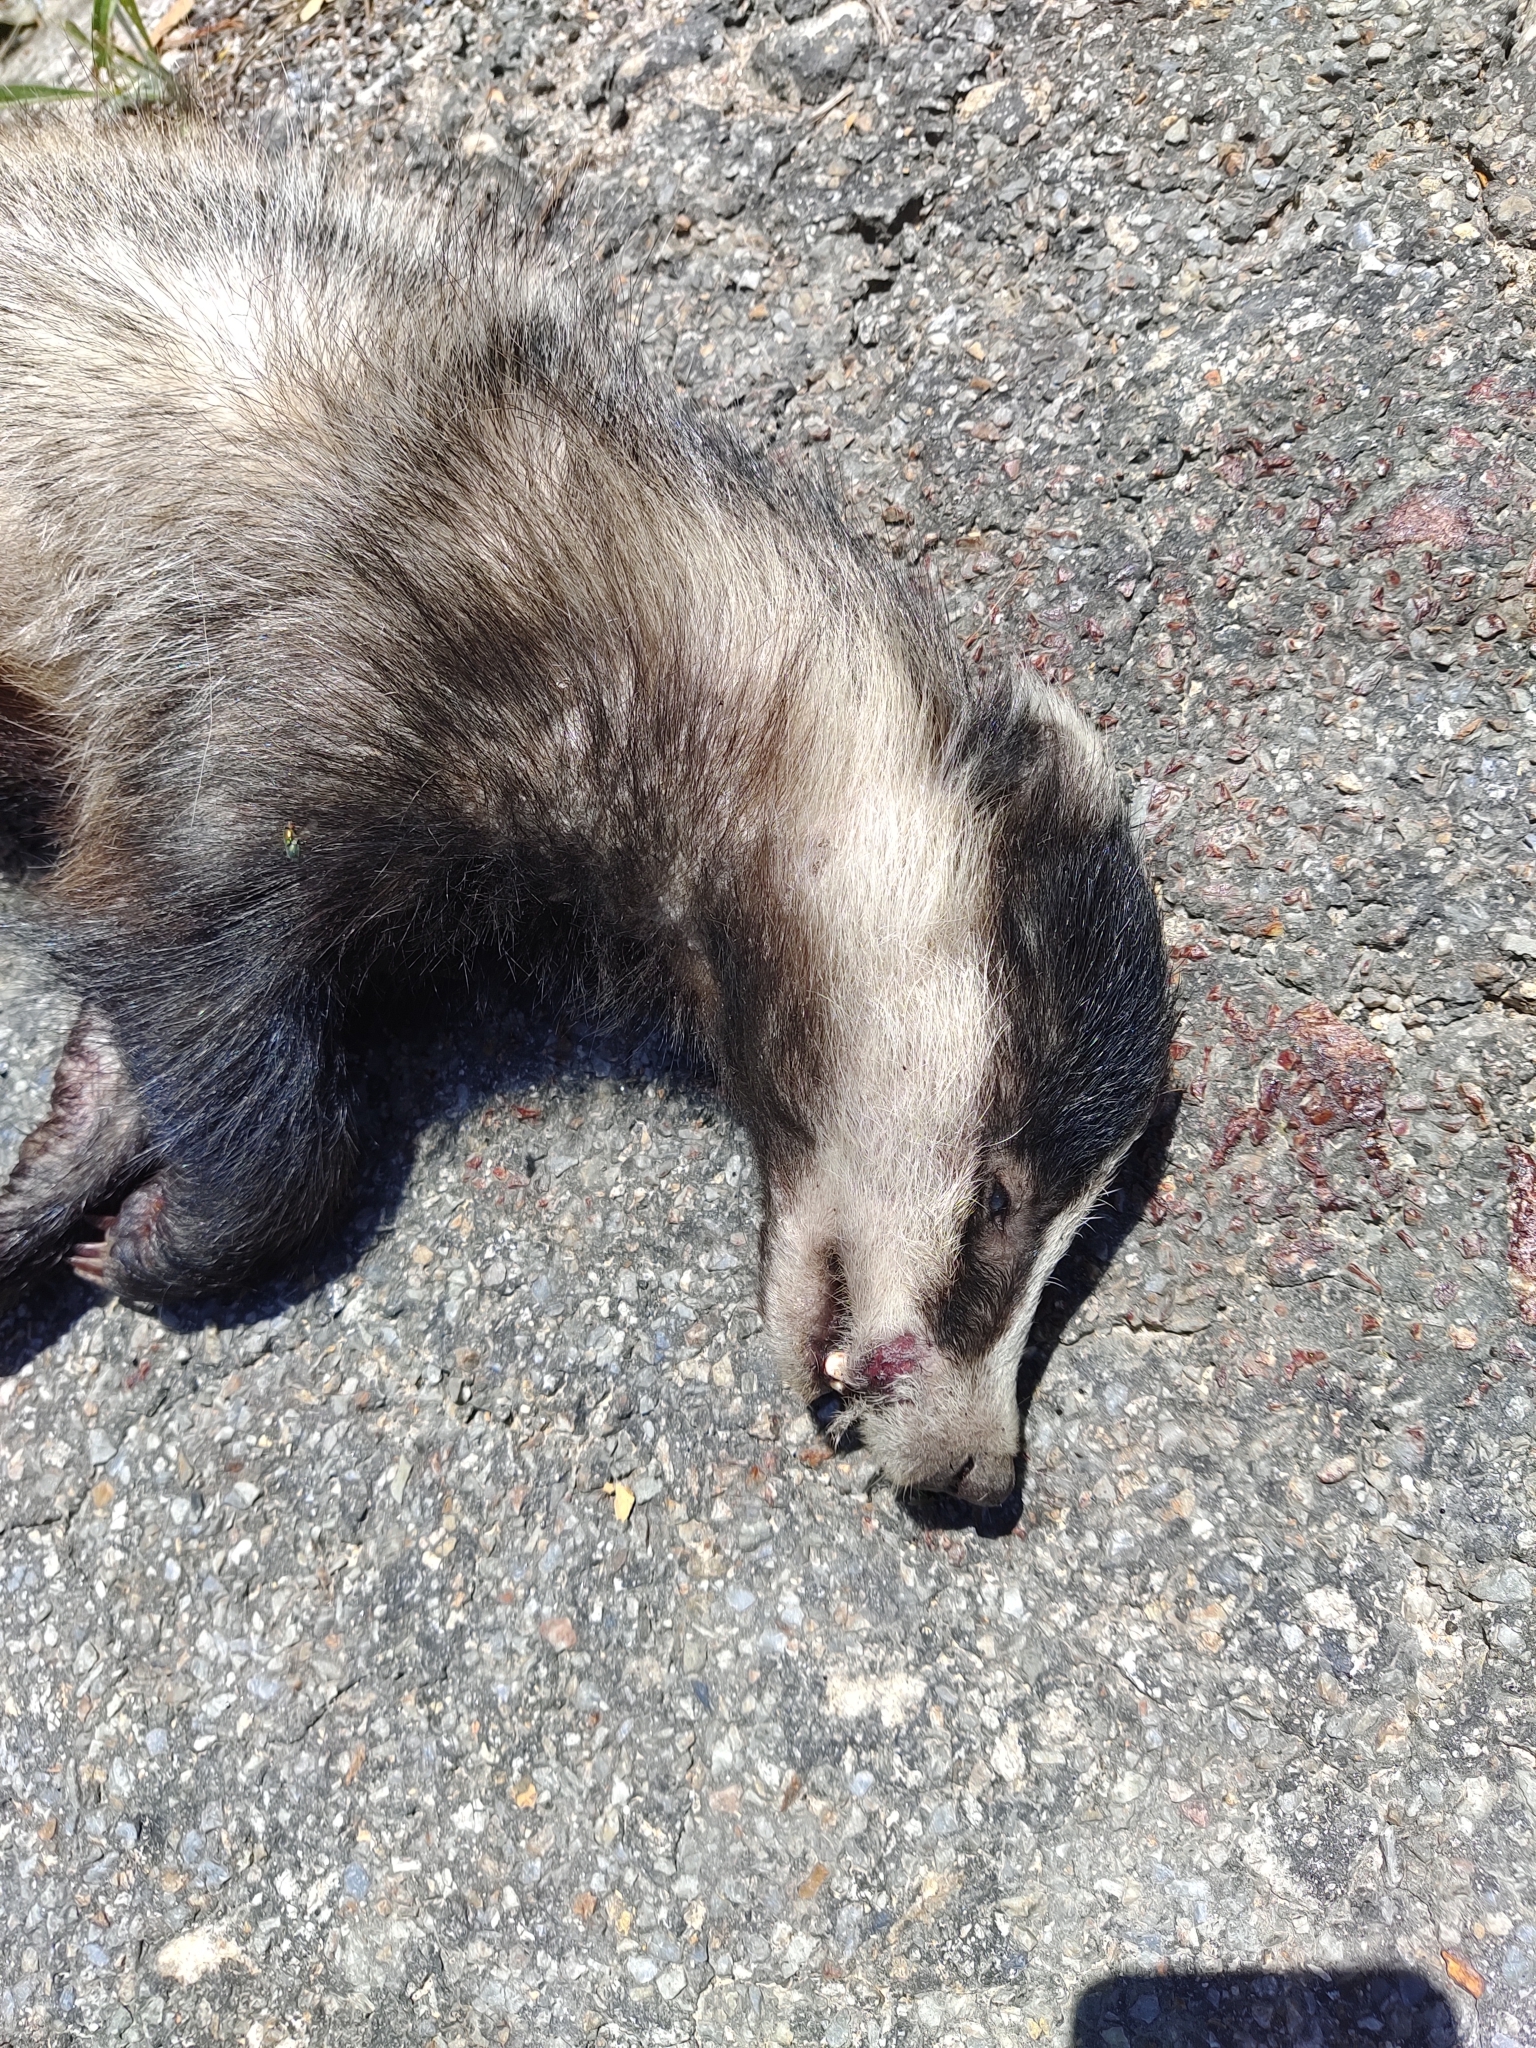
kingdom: Animalia
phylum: Chordata
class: Mammalia
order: Carnivora
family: Mustelidae
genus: Meles
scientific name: Meles meles
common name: Eurasian badger
